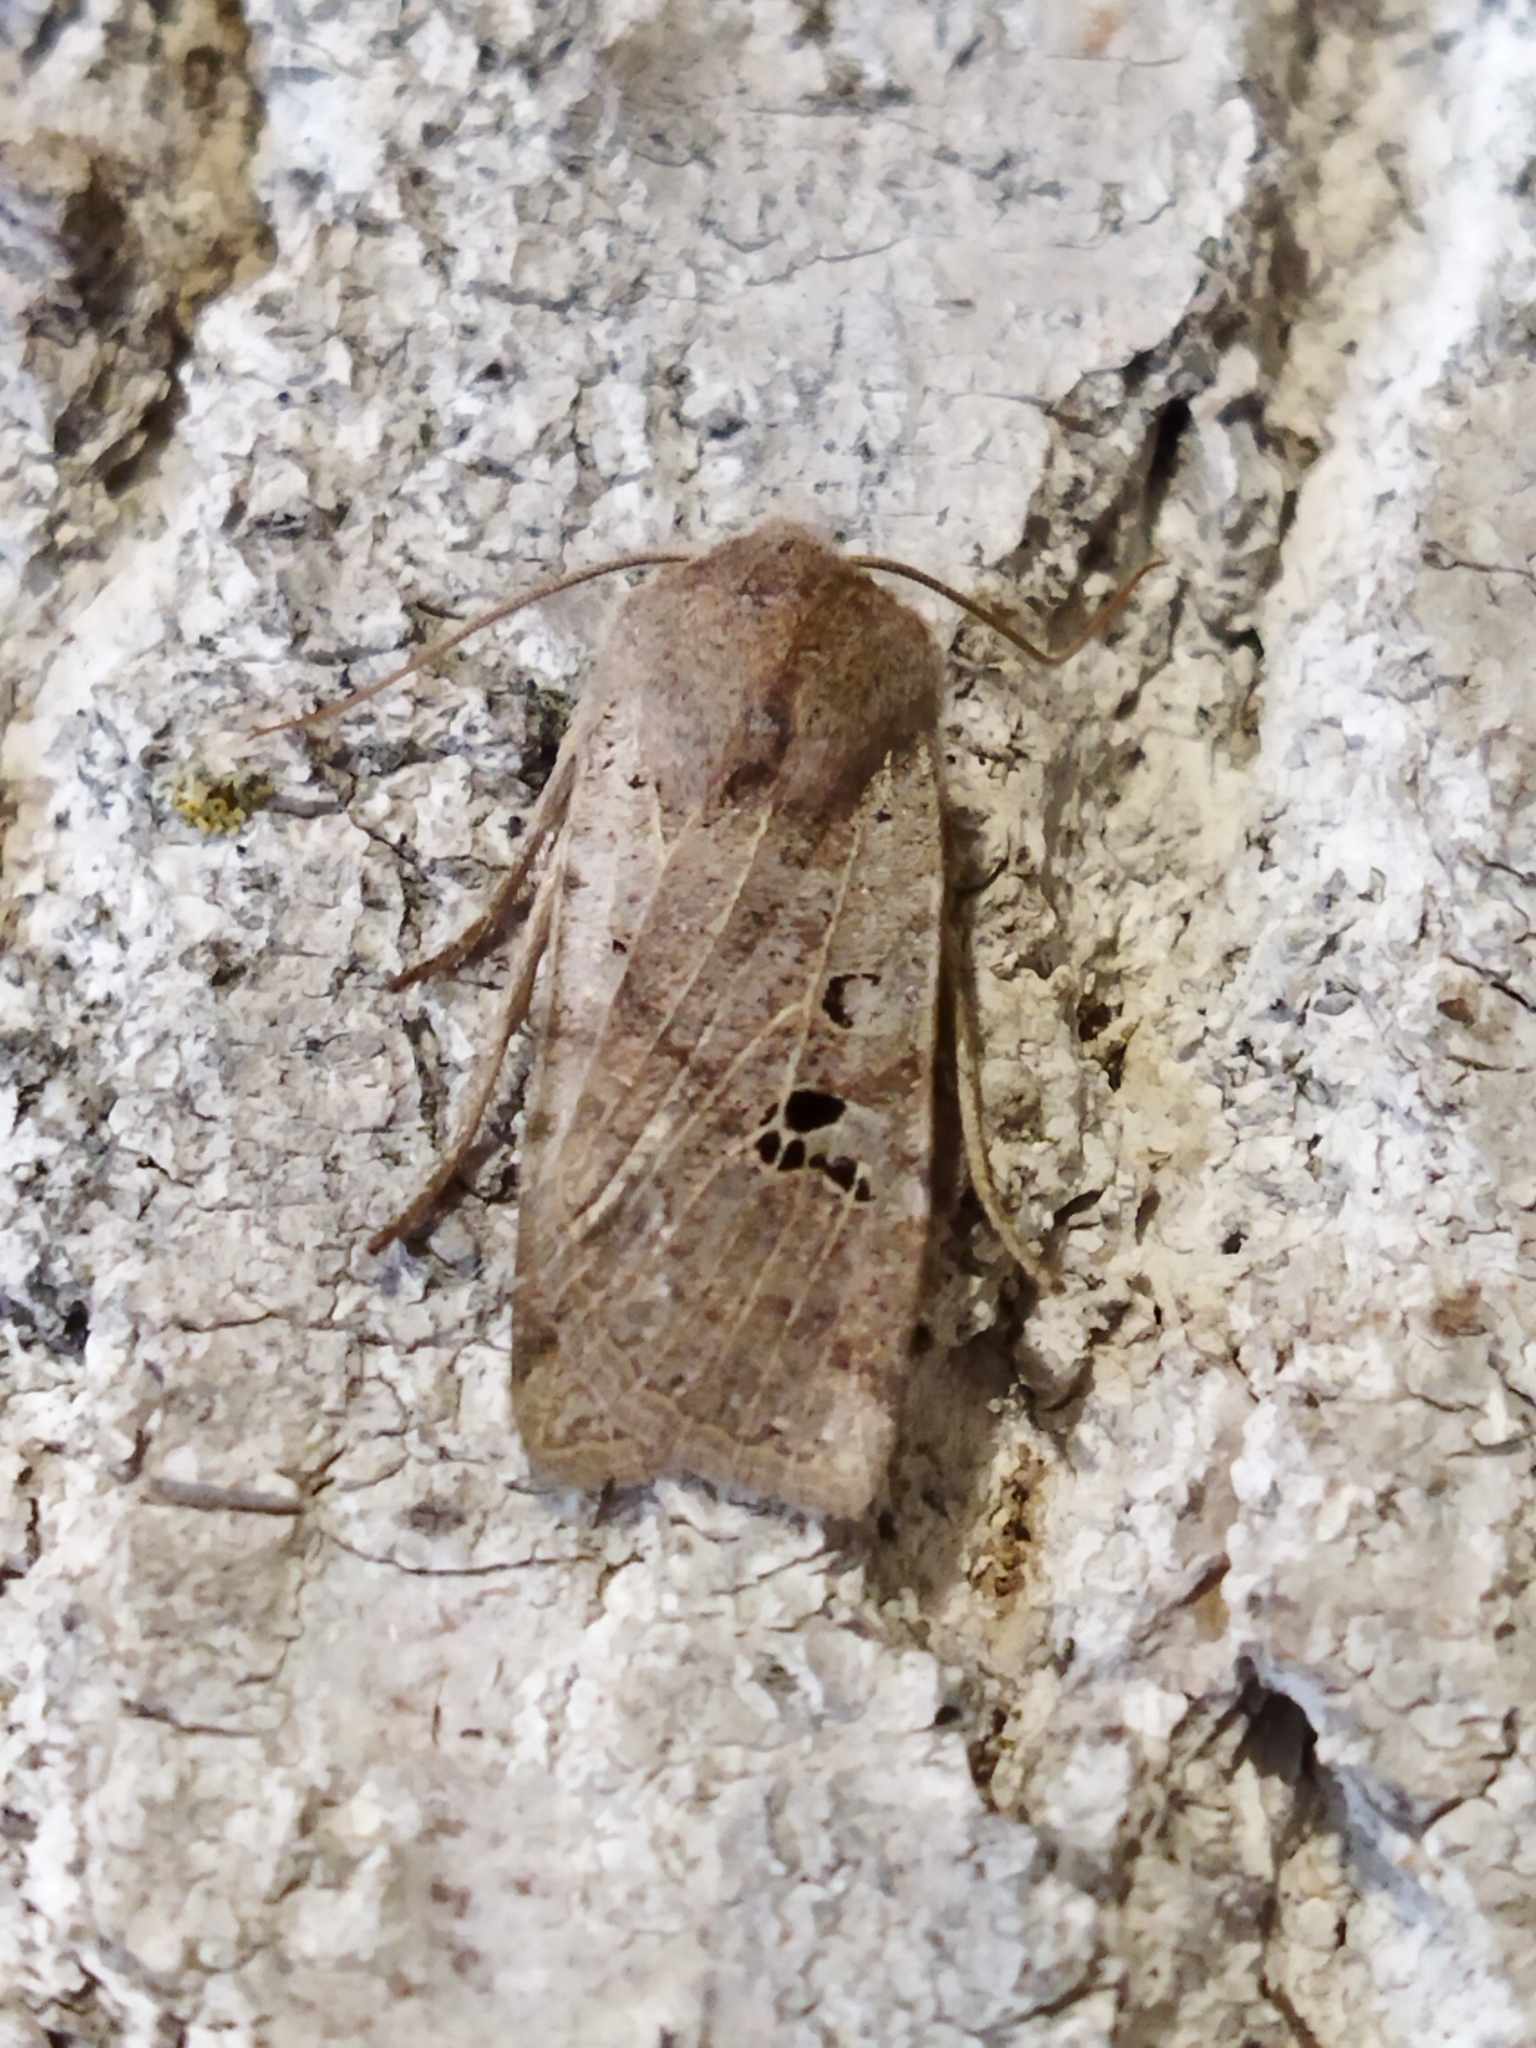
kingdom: Animalia
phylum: Arthropoda
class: Insecta
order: Lepidoptera
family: Noctuidae
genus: Conistra
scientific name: Conistra rubiginosa
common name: Black-spotted chestnut
